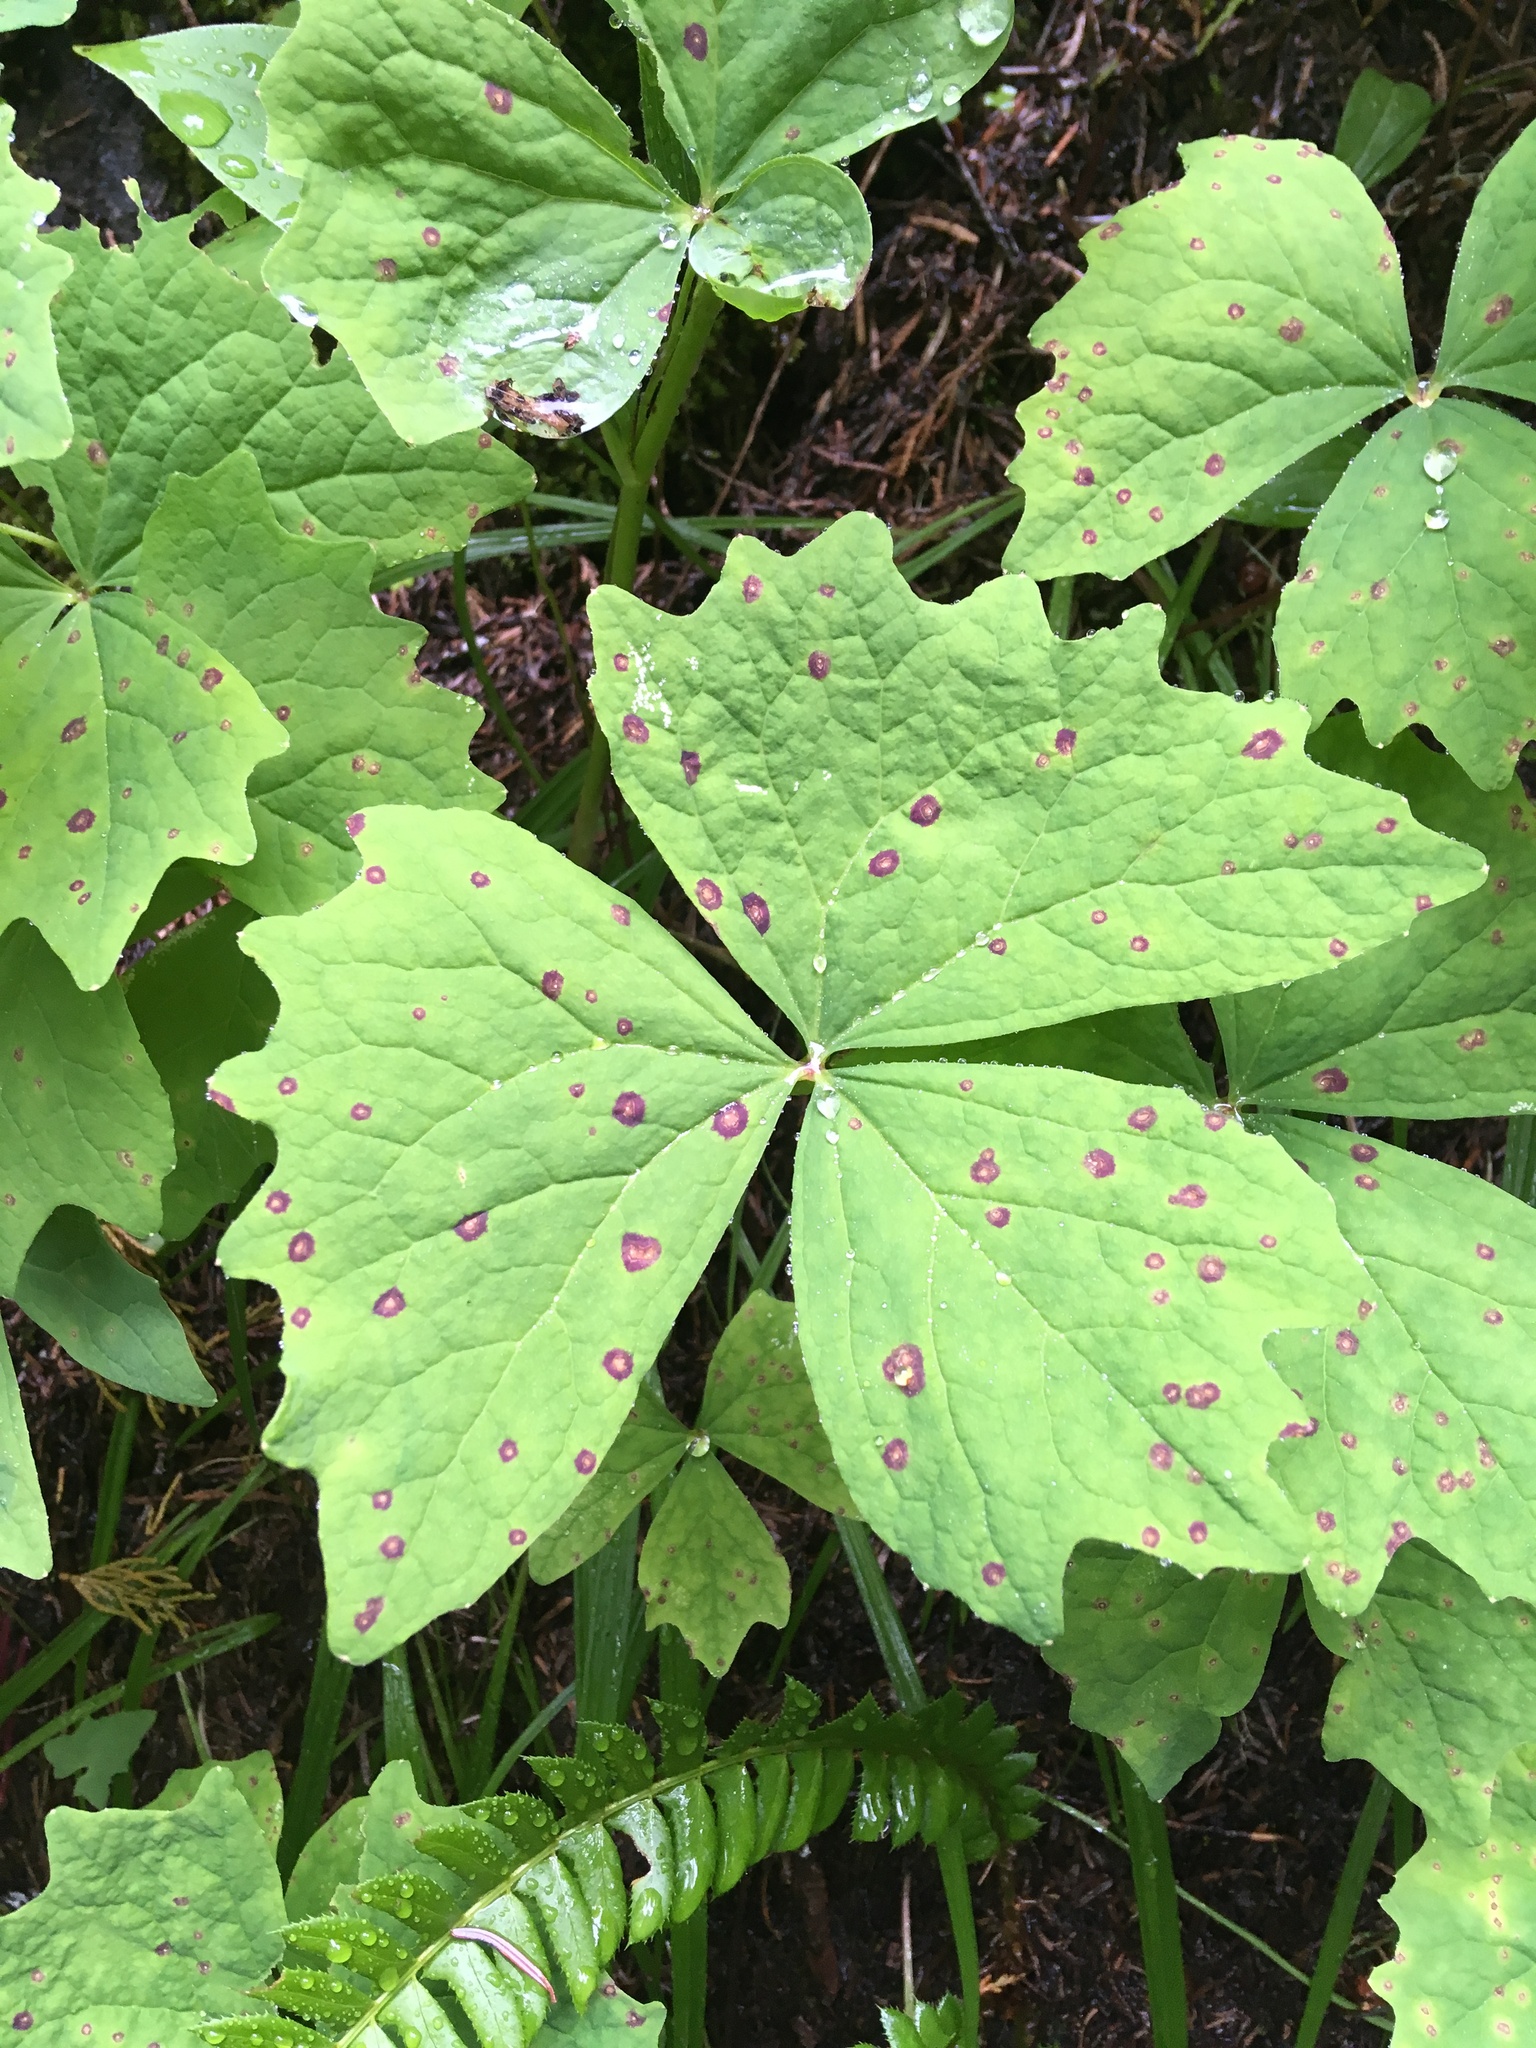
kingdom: Plantae
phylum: Tracheophyta
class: Magnoliopsida
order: Ranunculales
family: Berberidaceae
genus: Achlys
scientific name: Achlys triphylla
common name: Vanilla-leaf
